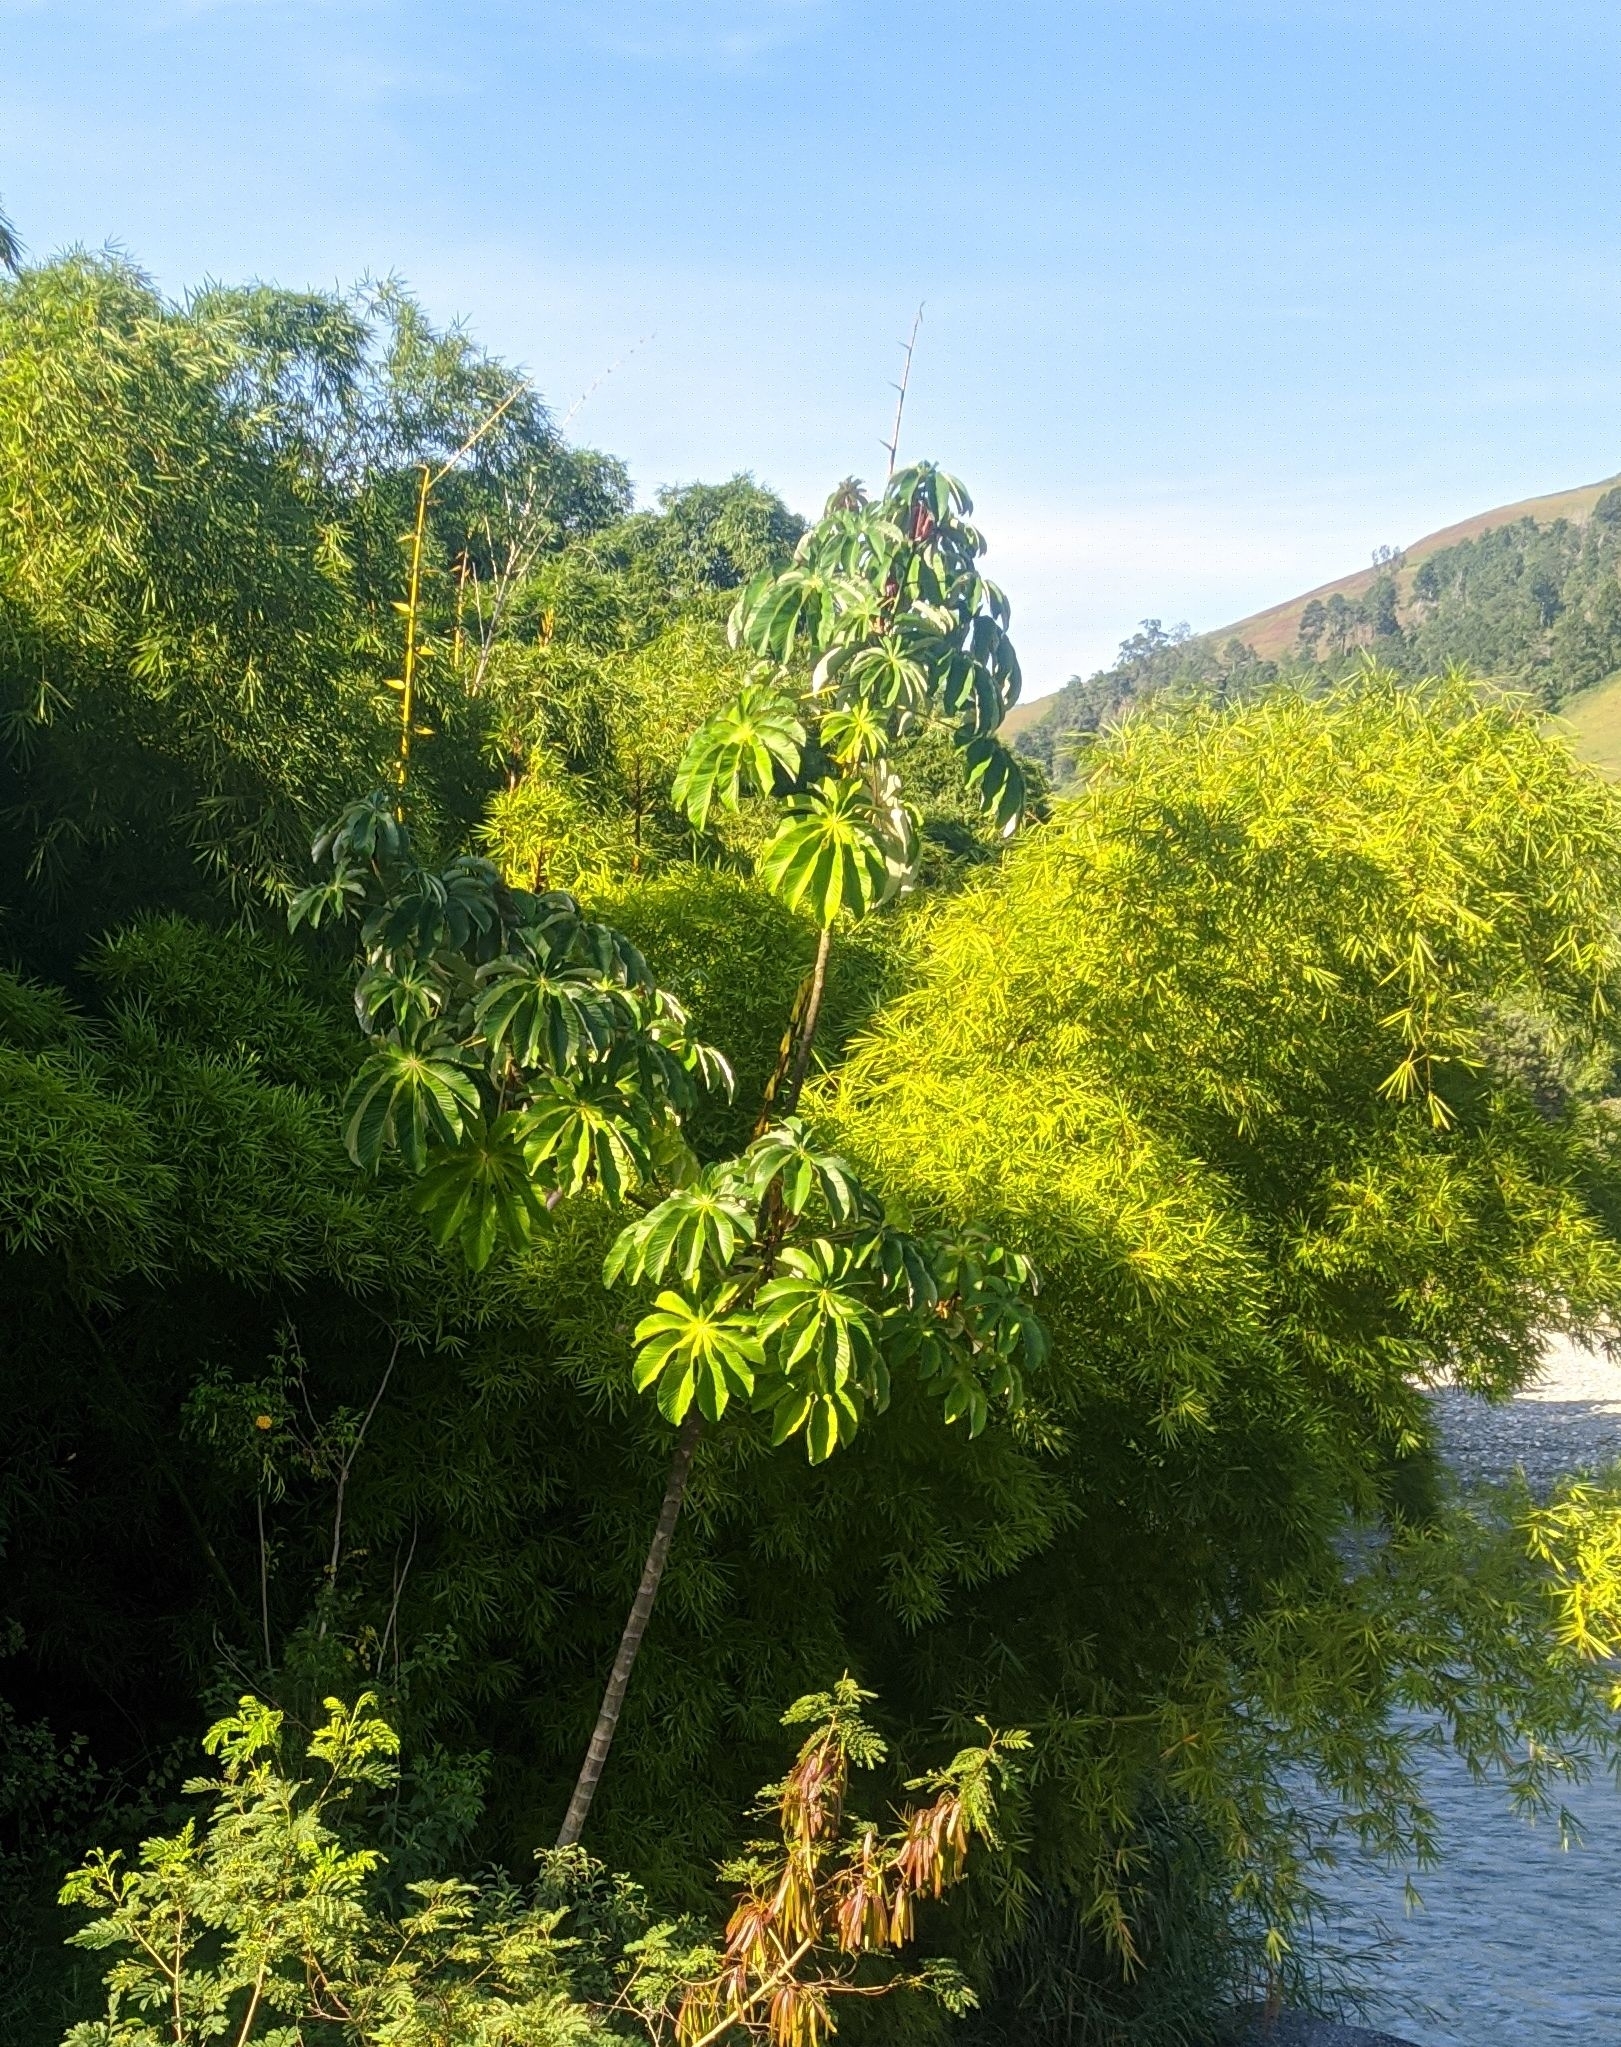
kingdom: Plantae
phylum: Tracheophyta
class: Magnoliopsida
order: Rosales
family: Urticaceae
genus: Cecropia
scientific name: Cecropia sararensis
